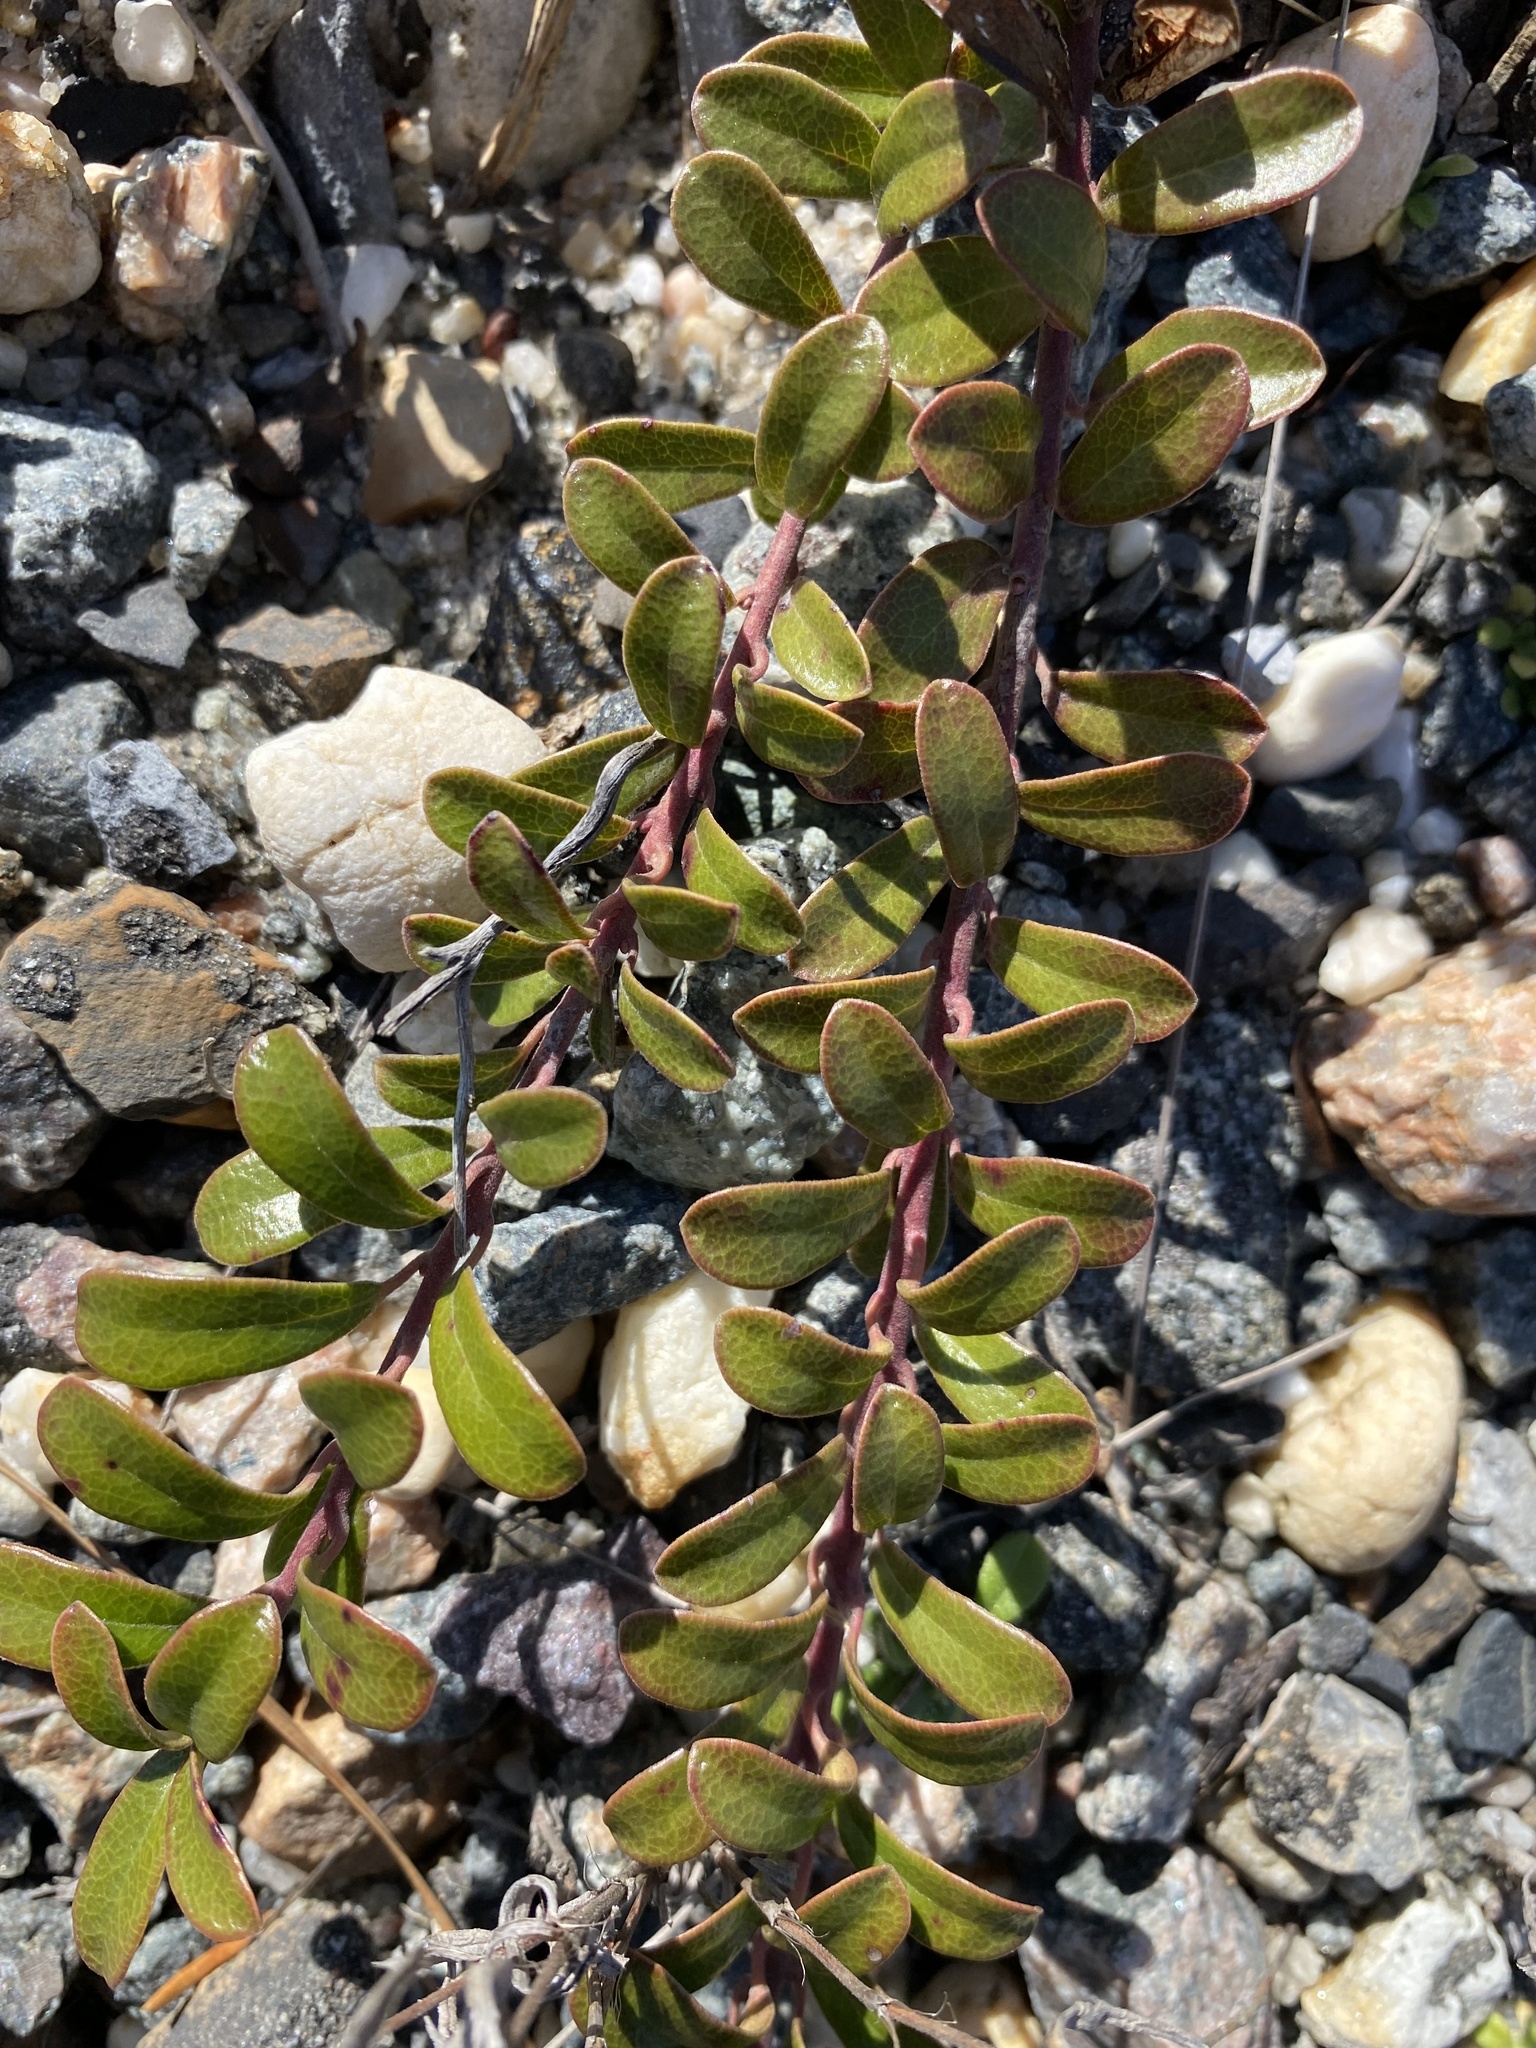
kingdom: Plantae
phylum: Tracheophyta
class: Magnoliopsida
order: Ericales
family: Ericaceae
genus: Arctostaphylos
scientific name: Arctostaphylos uva-ursi
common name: Bearberry
